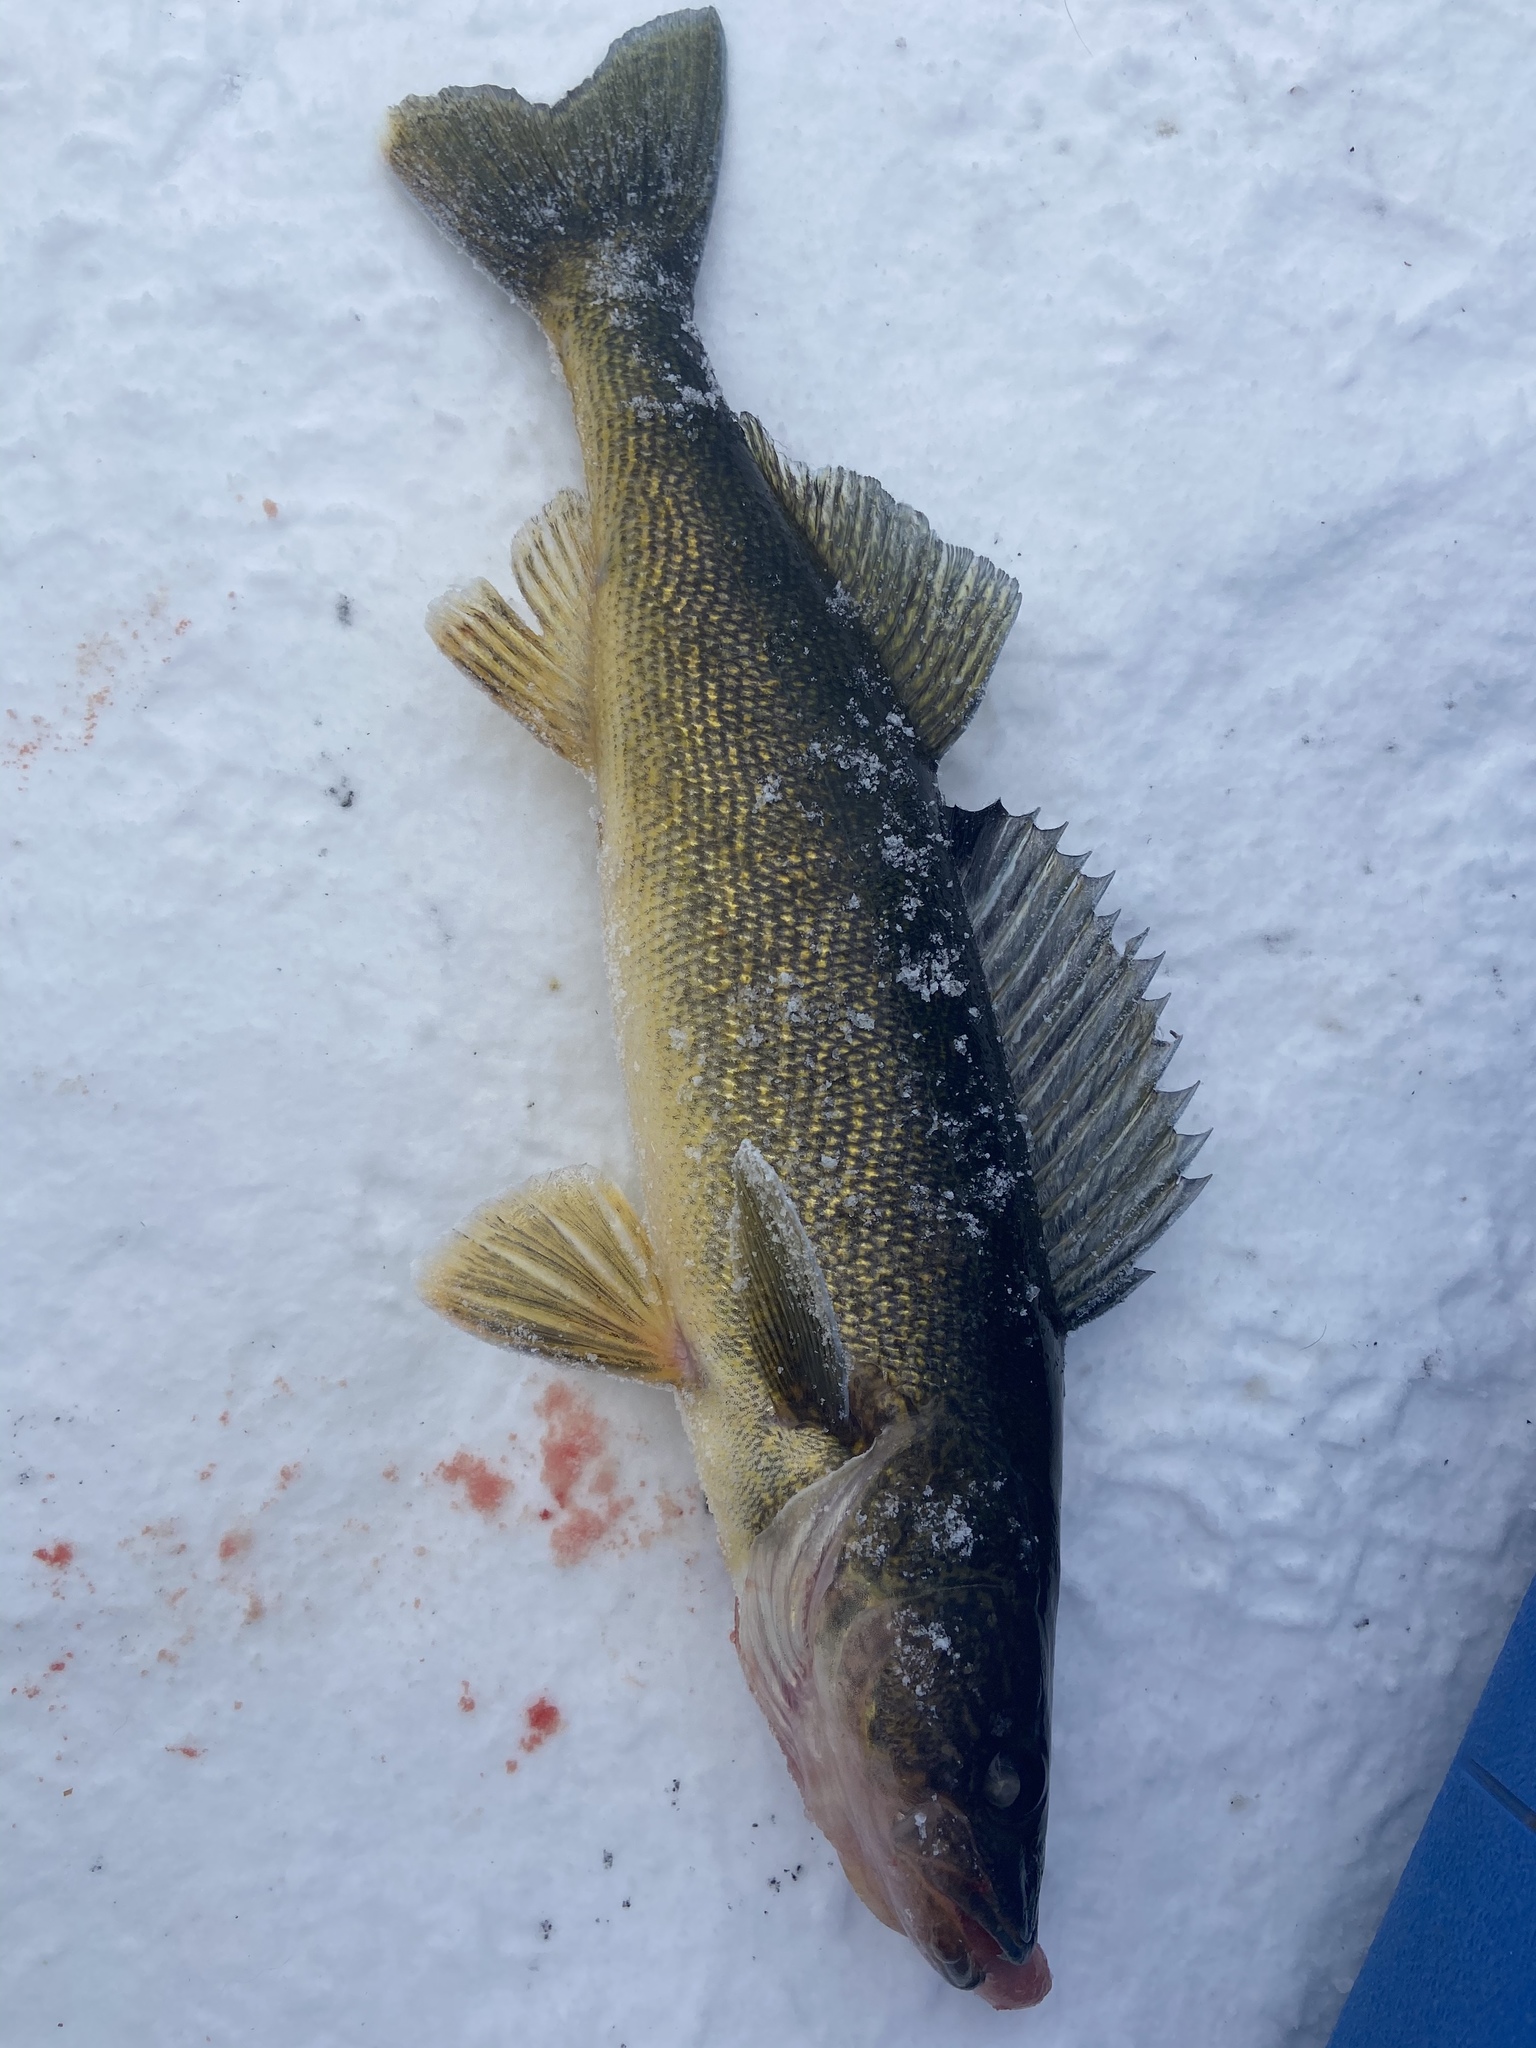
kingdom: Animalia
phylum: Chordata
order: Perciformes
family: Percidae
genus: Sander
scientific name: Sander vitreus
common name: Walleye
